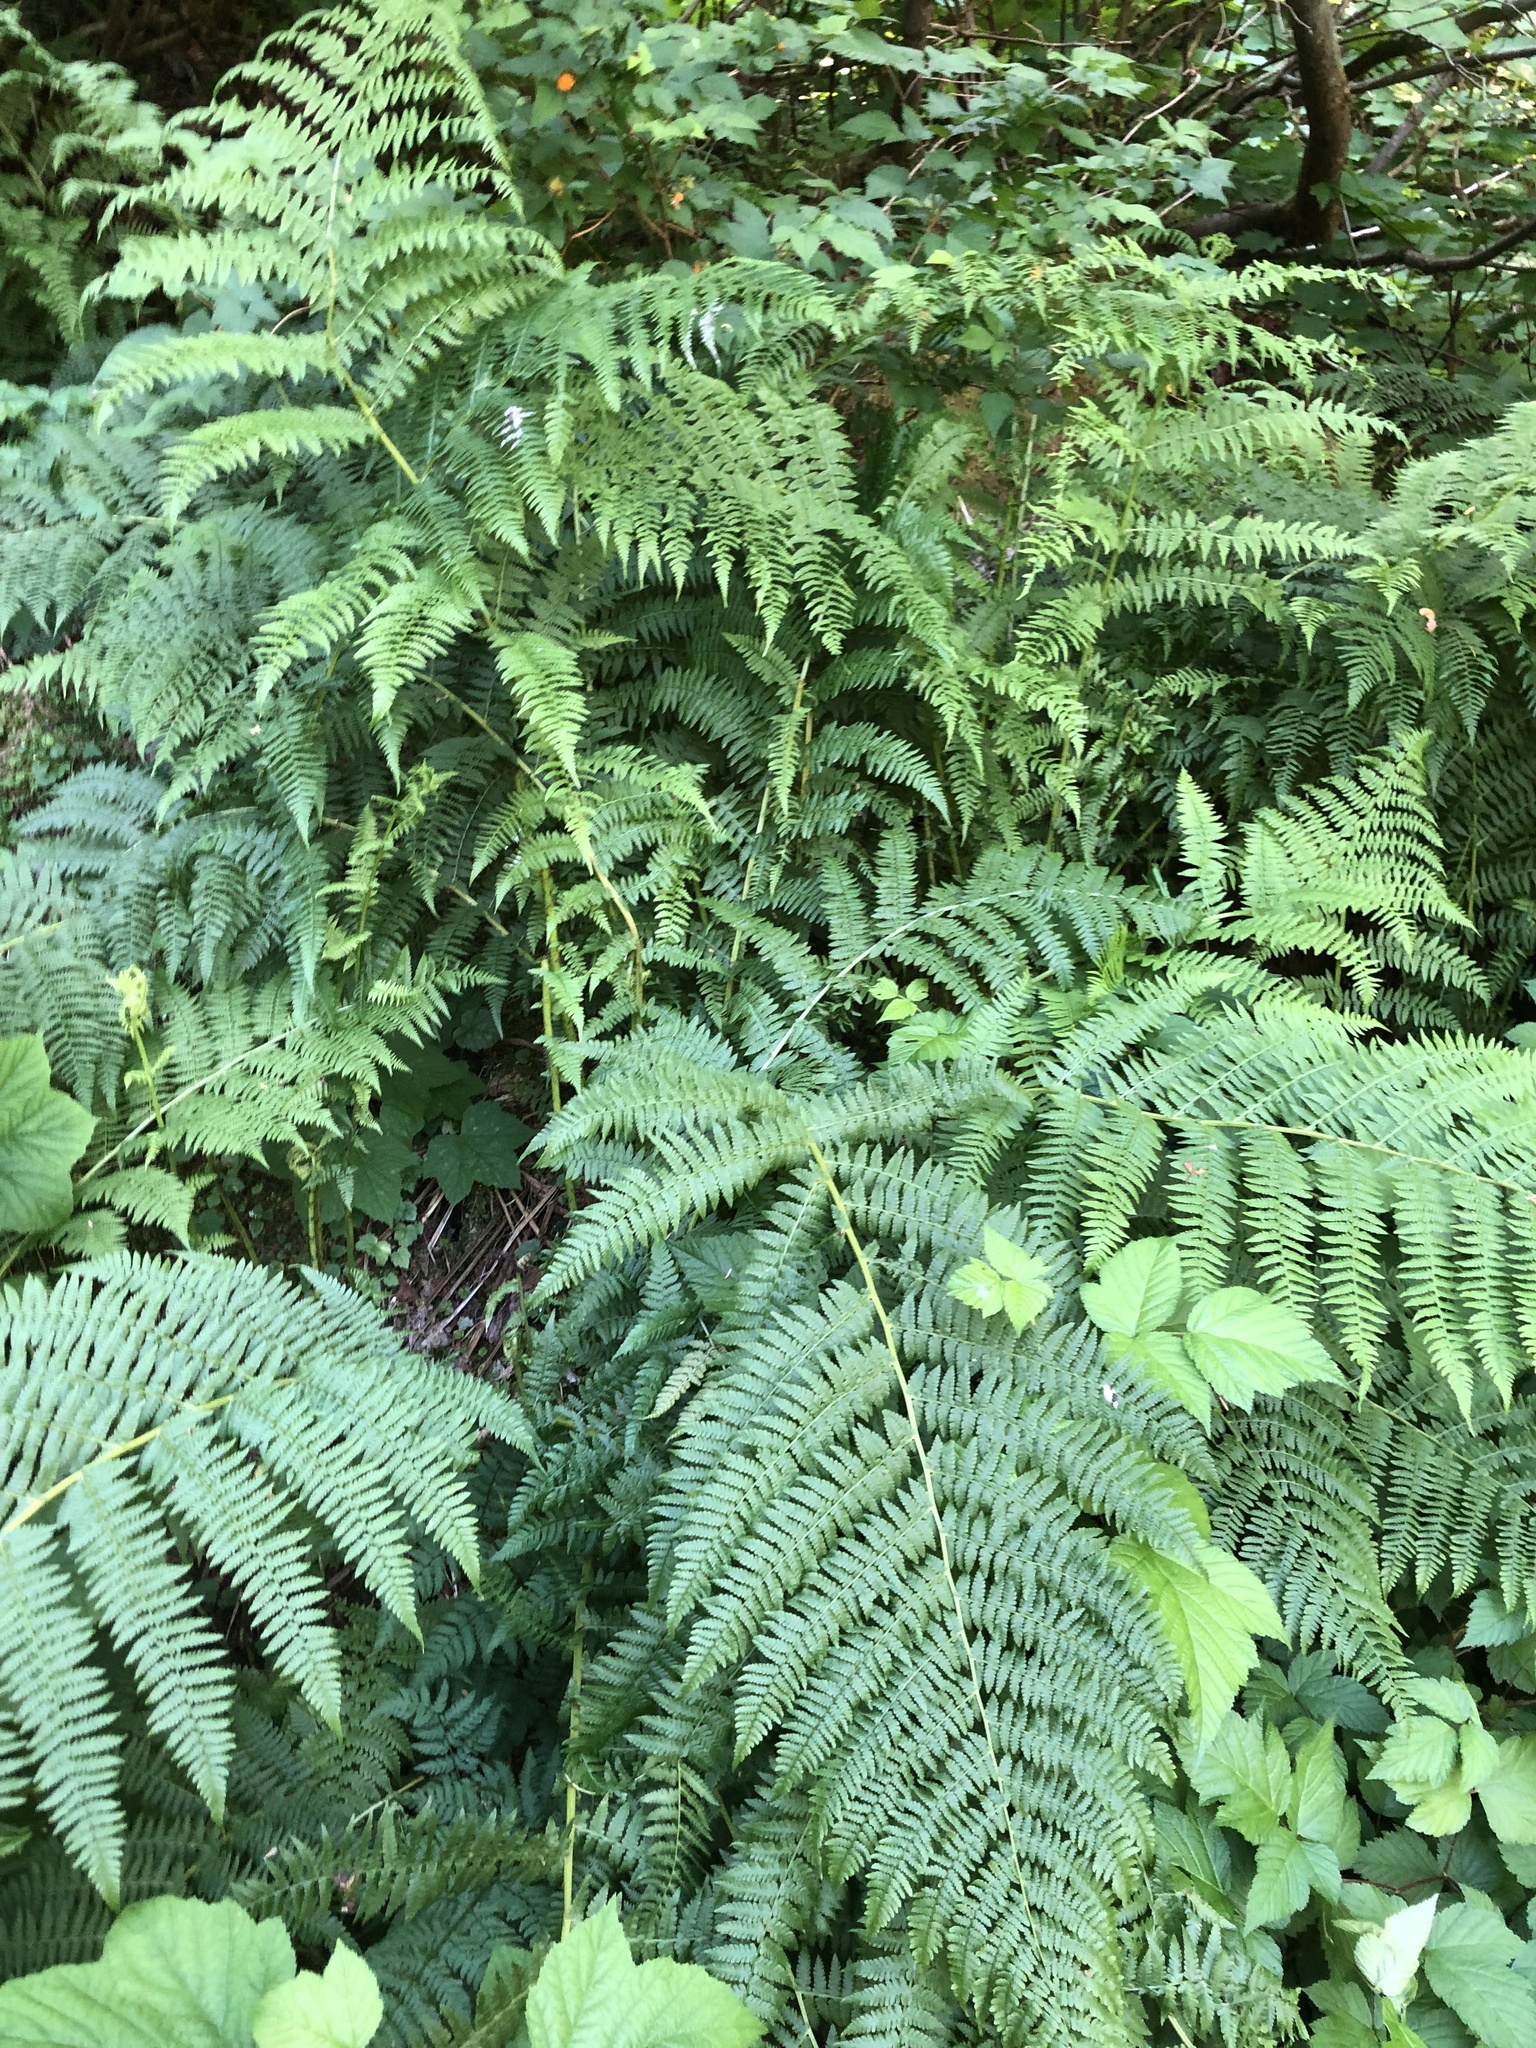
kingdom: Plantae
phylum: Tracheophyta
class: Polypodiopsida
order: Polypodiales
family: Athyriaceae
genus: Athyrium
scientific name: Athyrium filix-femina
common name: Lady fern
